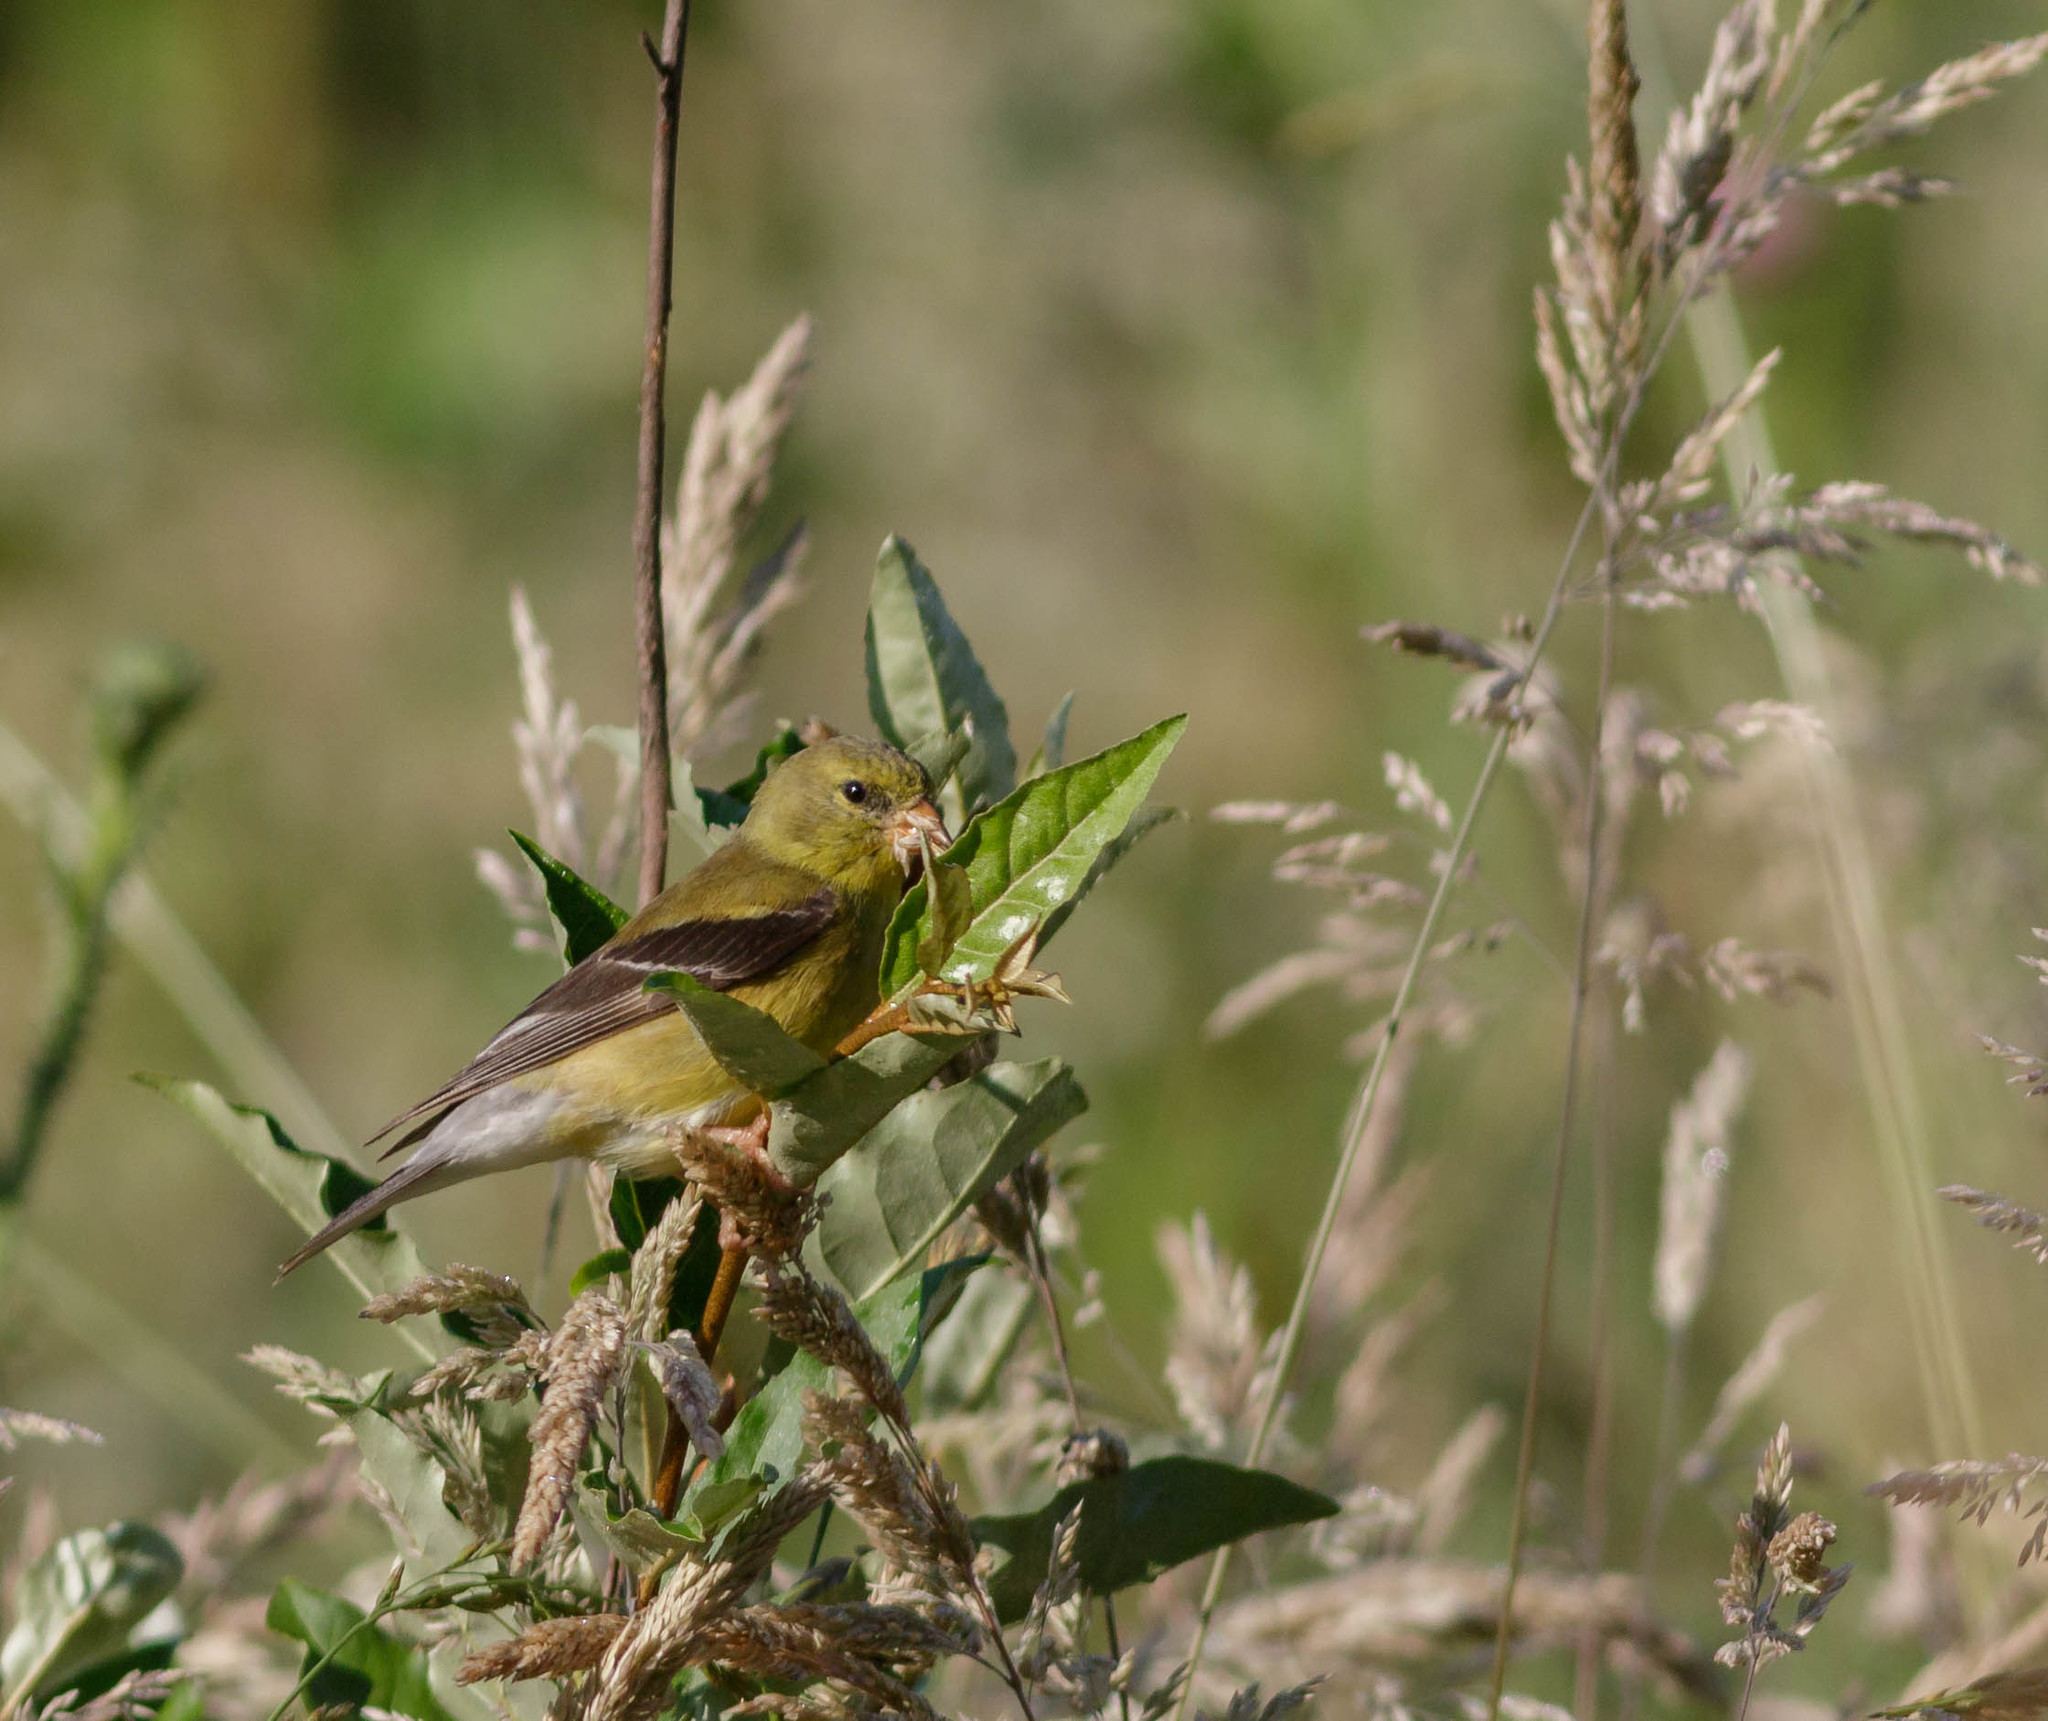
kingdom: Animalia
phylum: Chordata
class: Aves
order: Passeriformes
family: Fringillidae
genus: Spinus
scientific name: Spinus tristis
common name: American goldfinch
